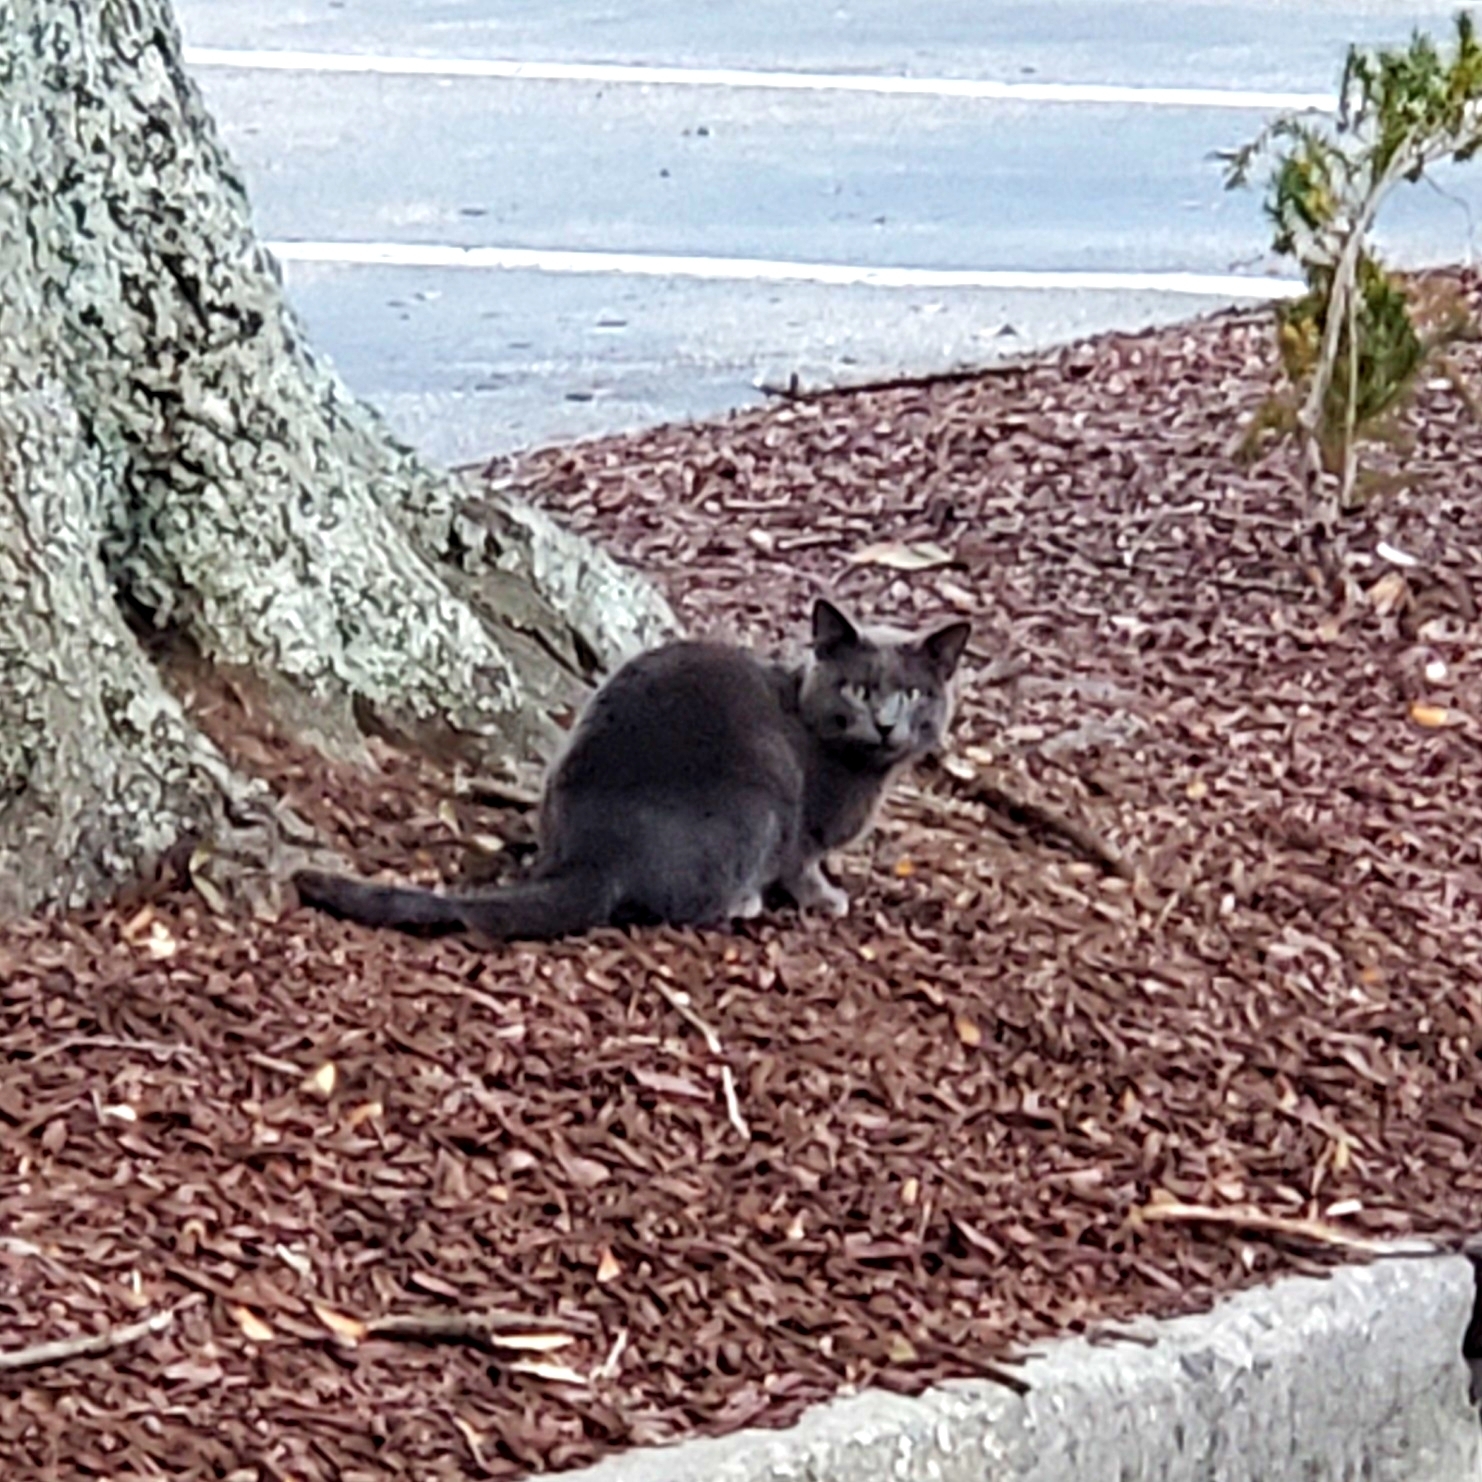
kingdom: Animalia
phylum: Chordata
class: Mammalia
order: Carnivora
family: Felidae
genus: Felis
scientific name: Felis catus
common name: Domestic cat
